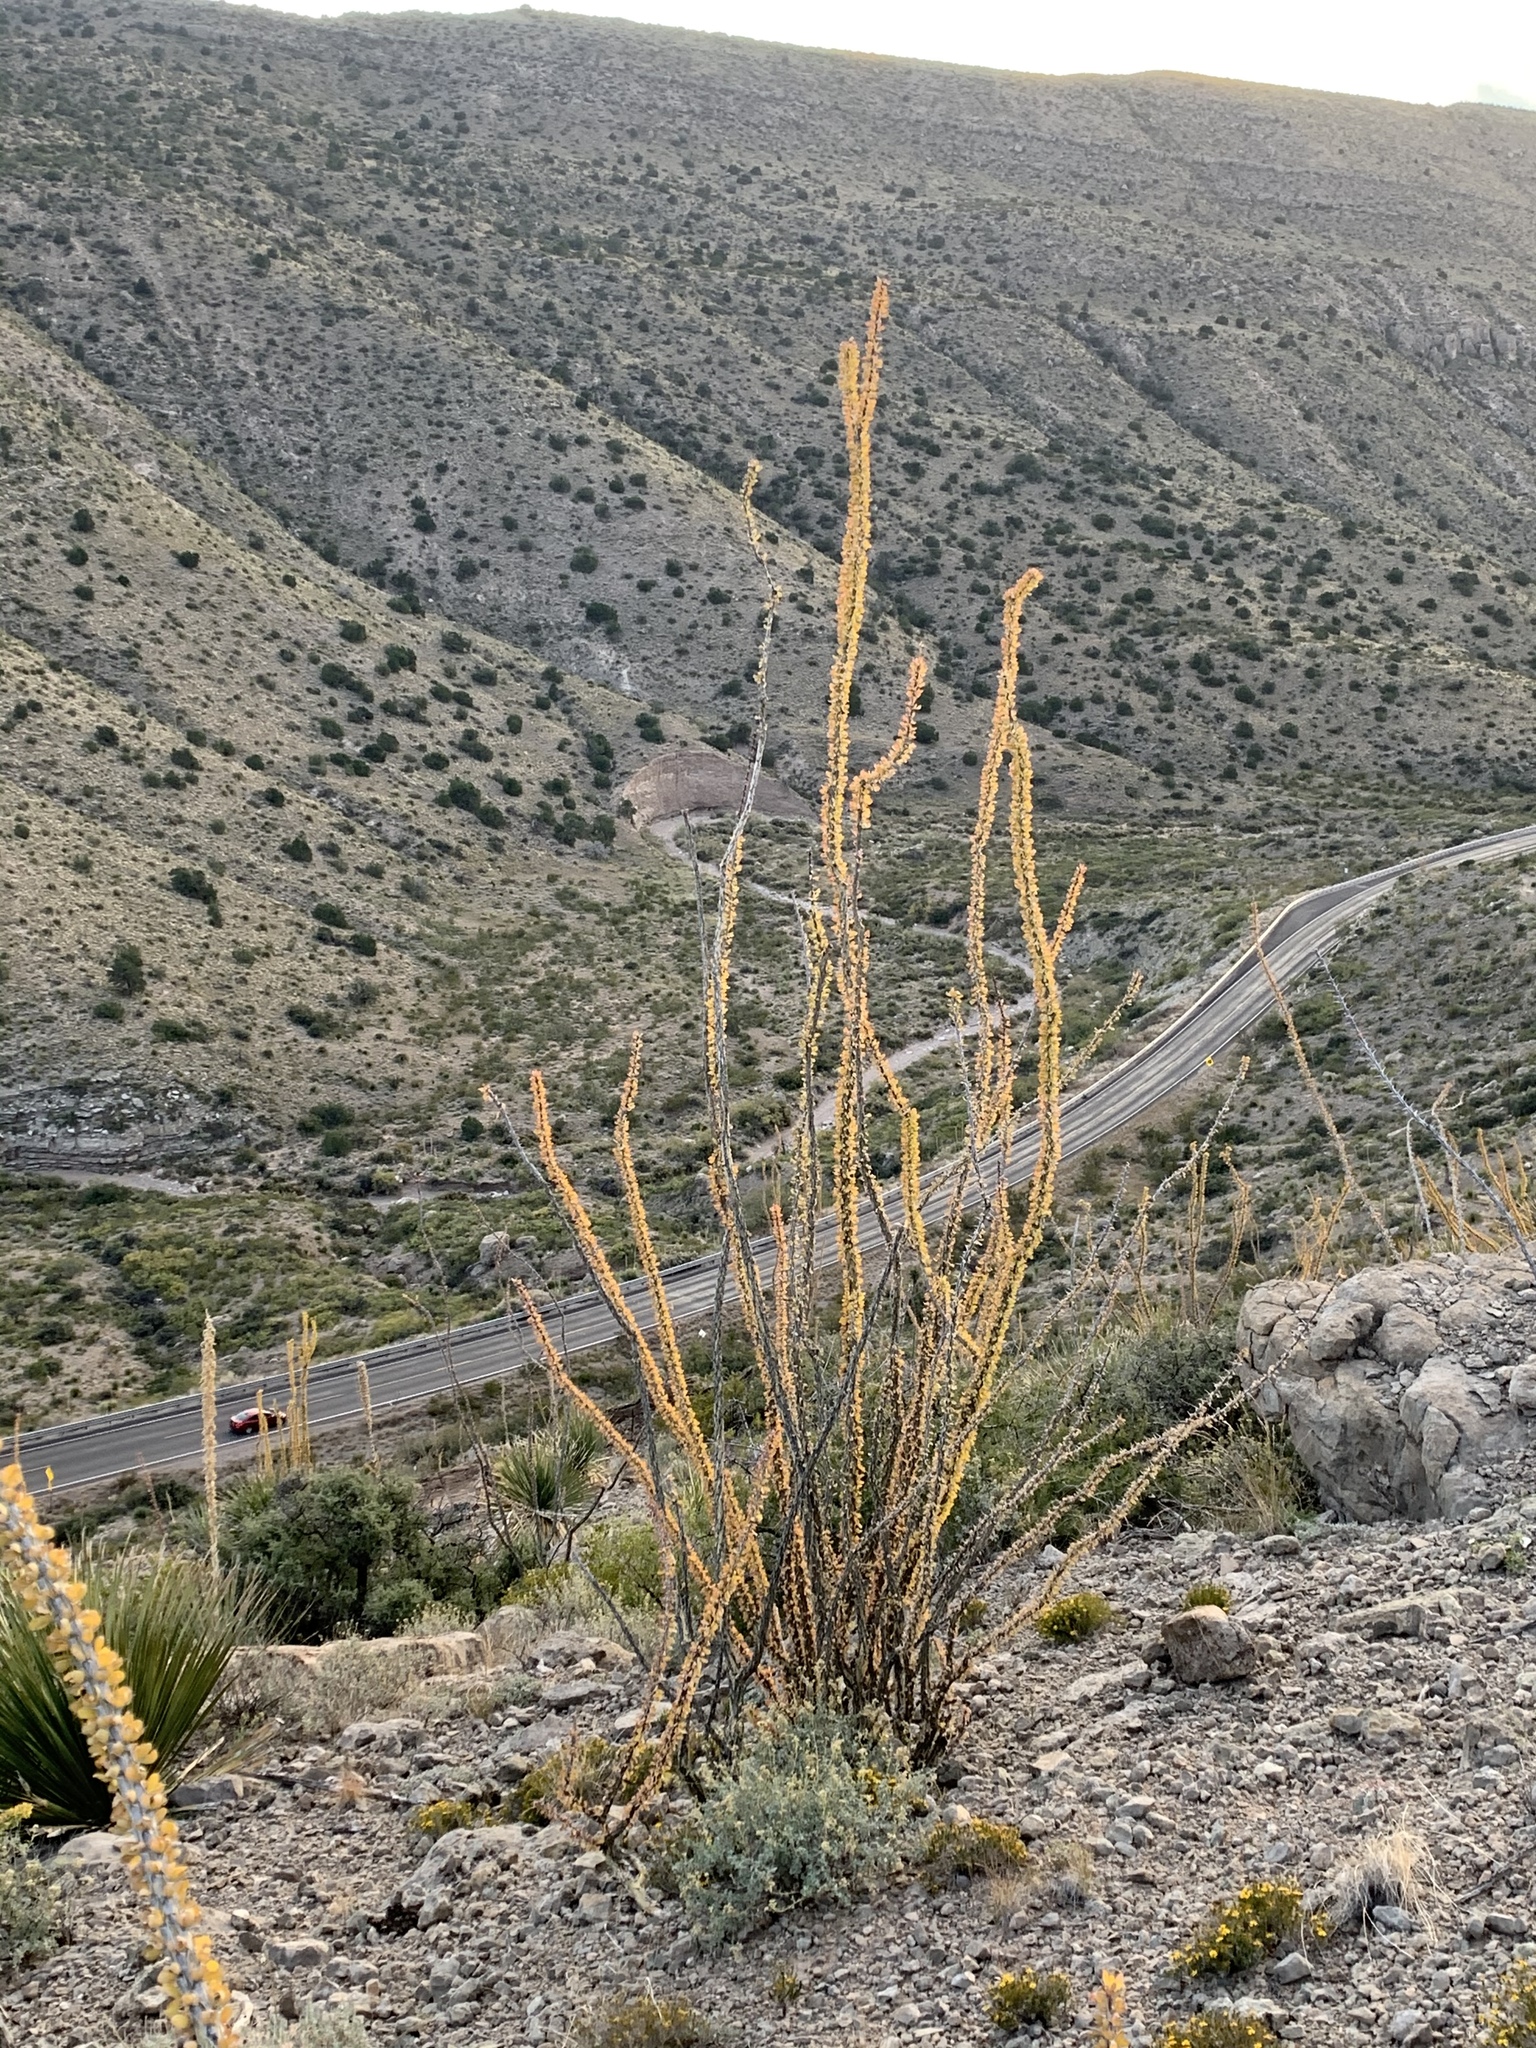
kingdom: Plantae
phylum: Tracheophyta
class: Magnoliopsida
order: Ericales
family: Fouquieriaceae
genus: Fouquieria
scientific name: Fouquieria splendens
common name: Vine-cactus
